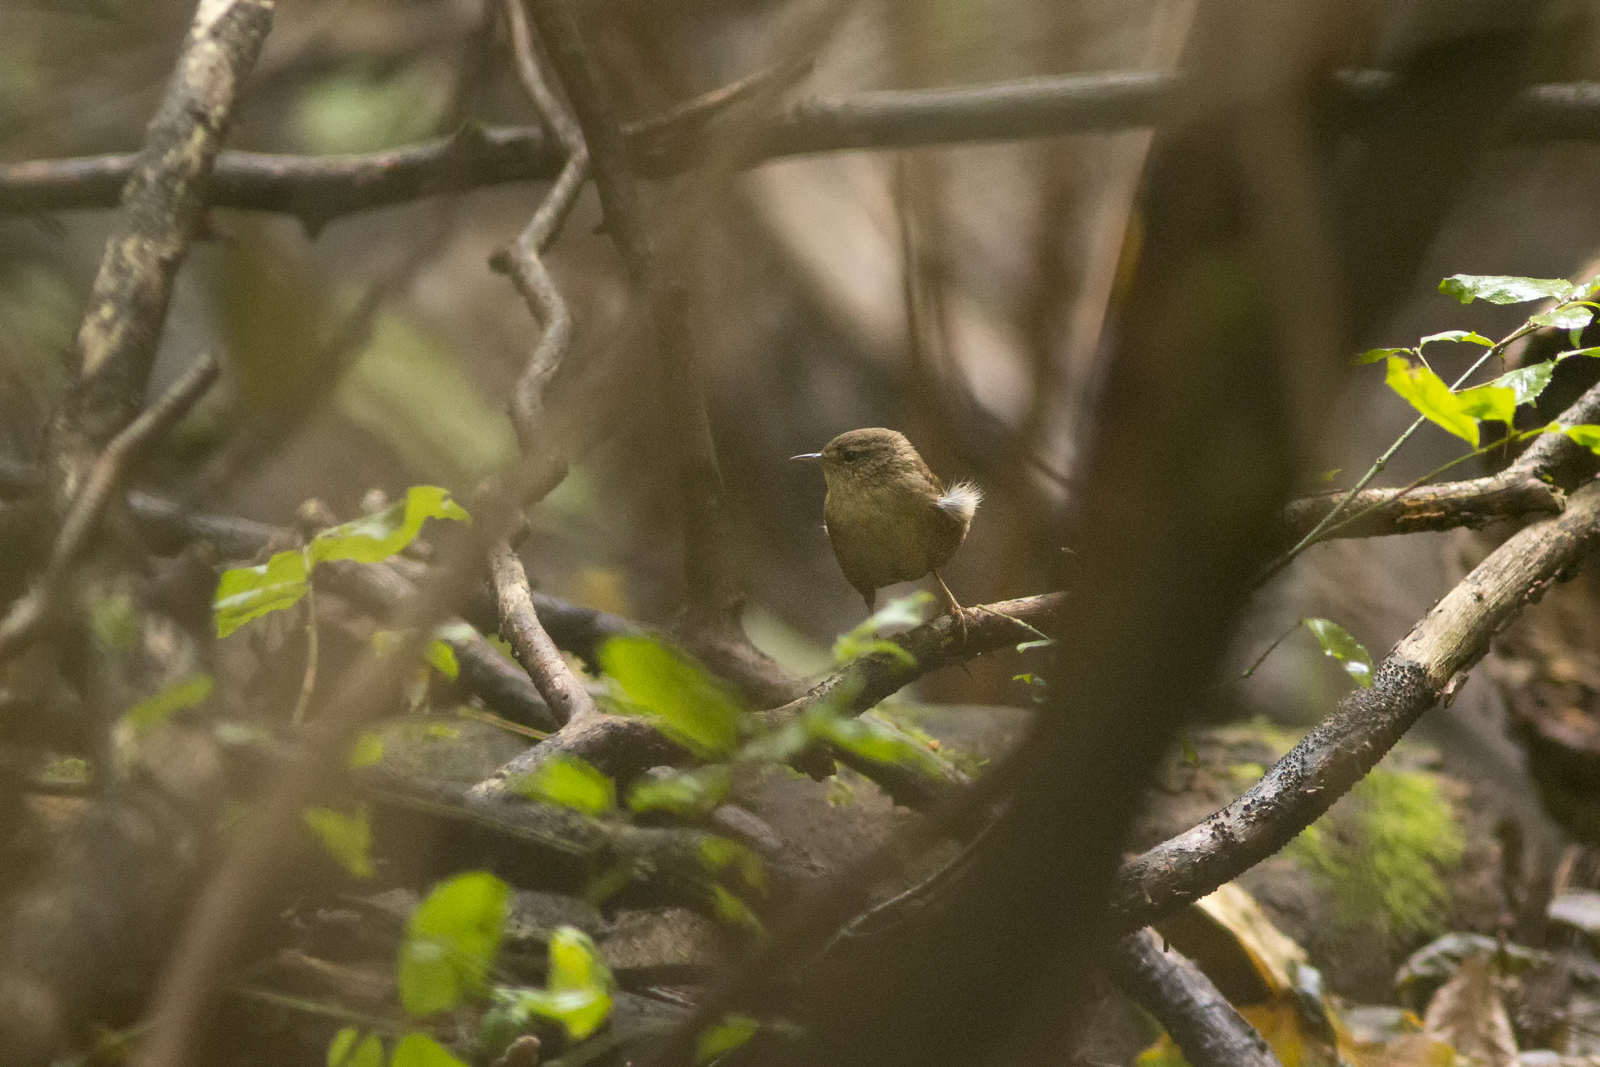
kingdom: Animalia
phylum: Chordata
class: Aves
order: Passeriformes
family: Troglodytidae
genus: Troglodytes
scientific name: Troglodytes troglodytes
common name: Eurasian wren
